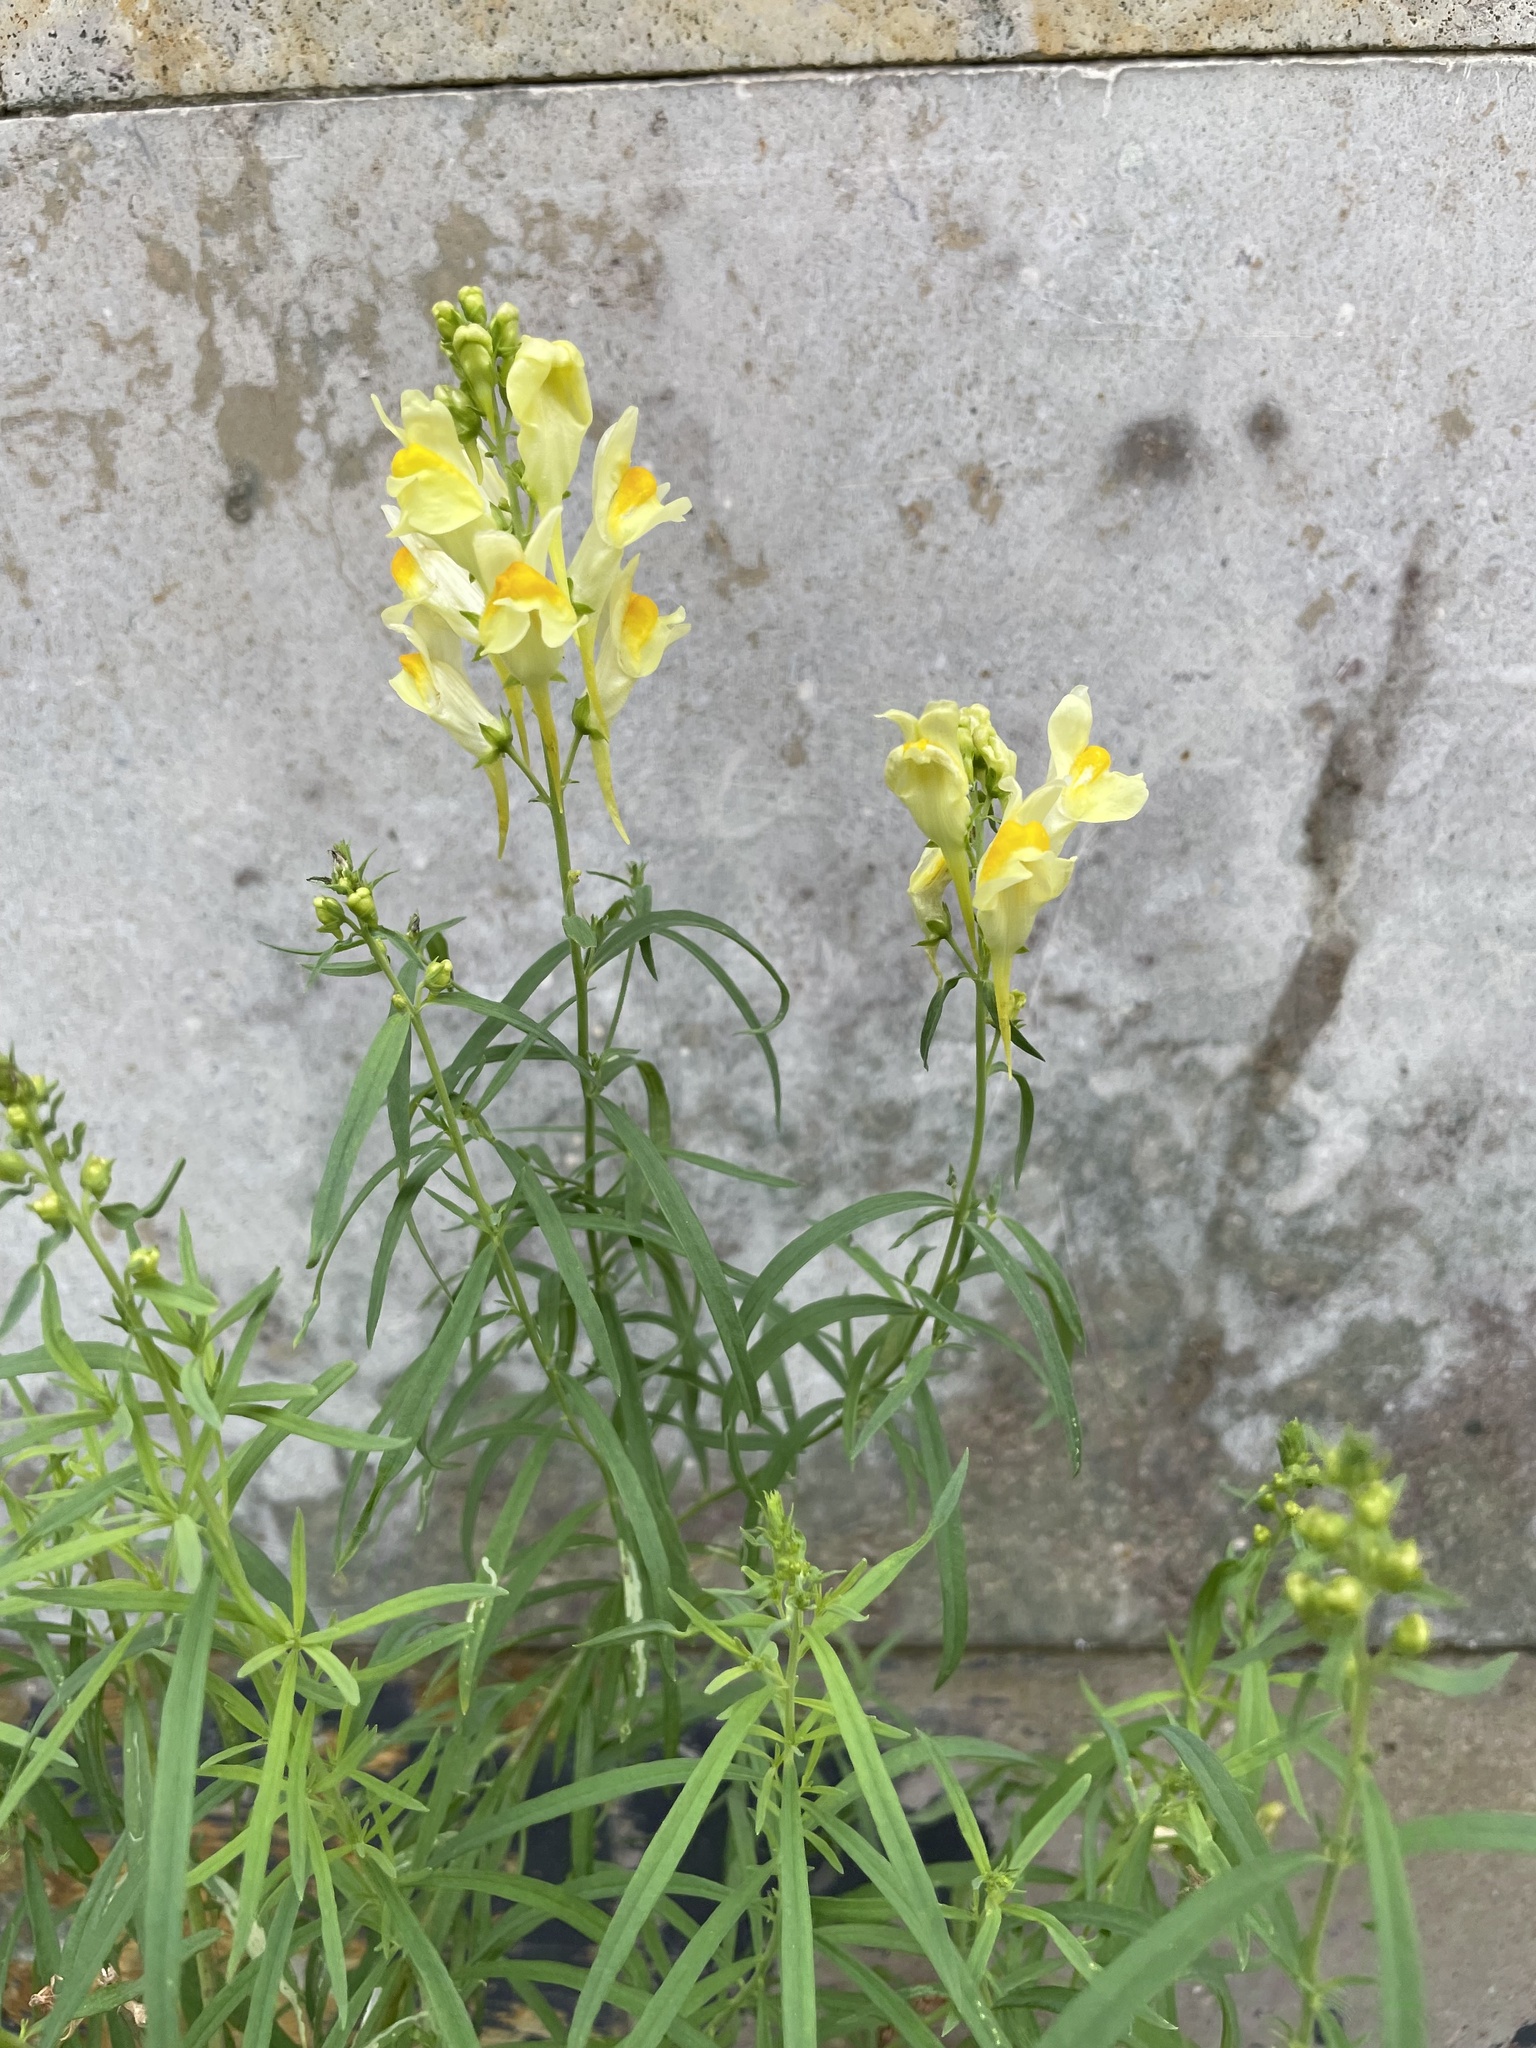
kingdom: Plantae
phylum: Tracheophyta
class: Magnoliopsida
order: Lamiales
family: Plantaginaceae
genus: Linaria
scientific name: Linaria vulgaris
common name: Butter and eggs
